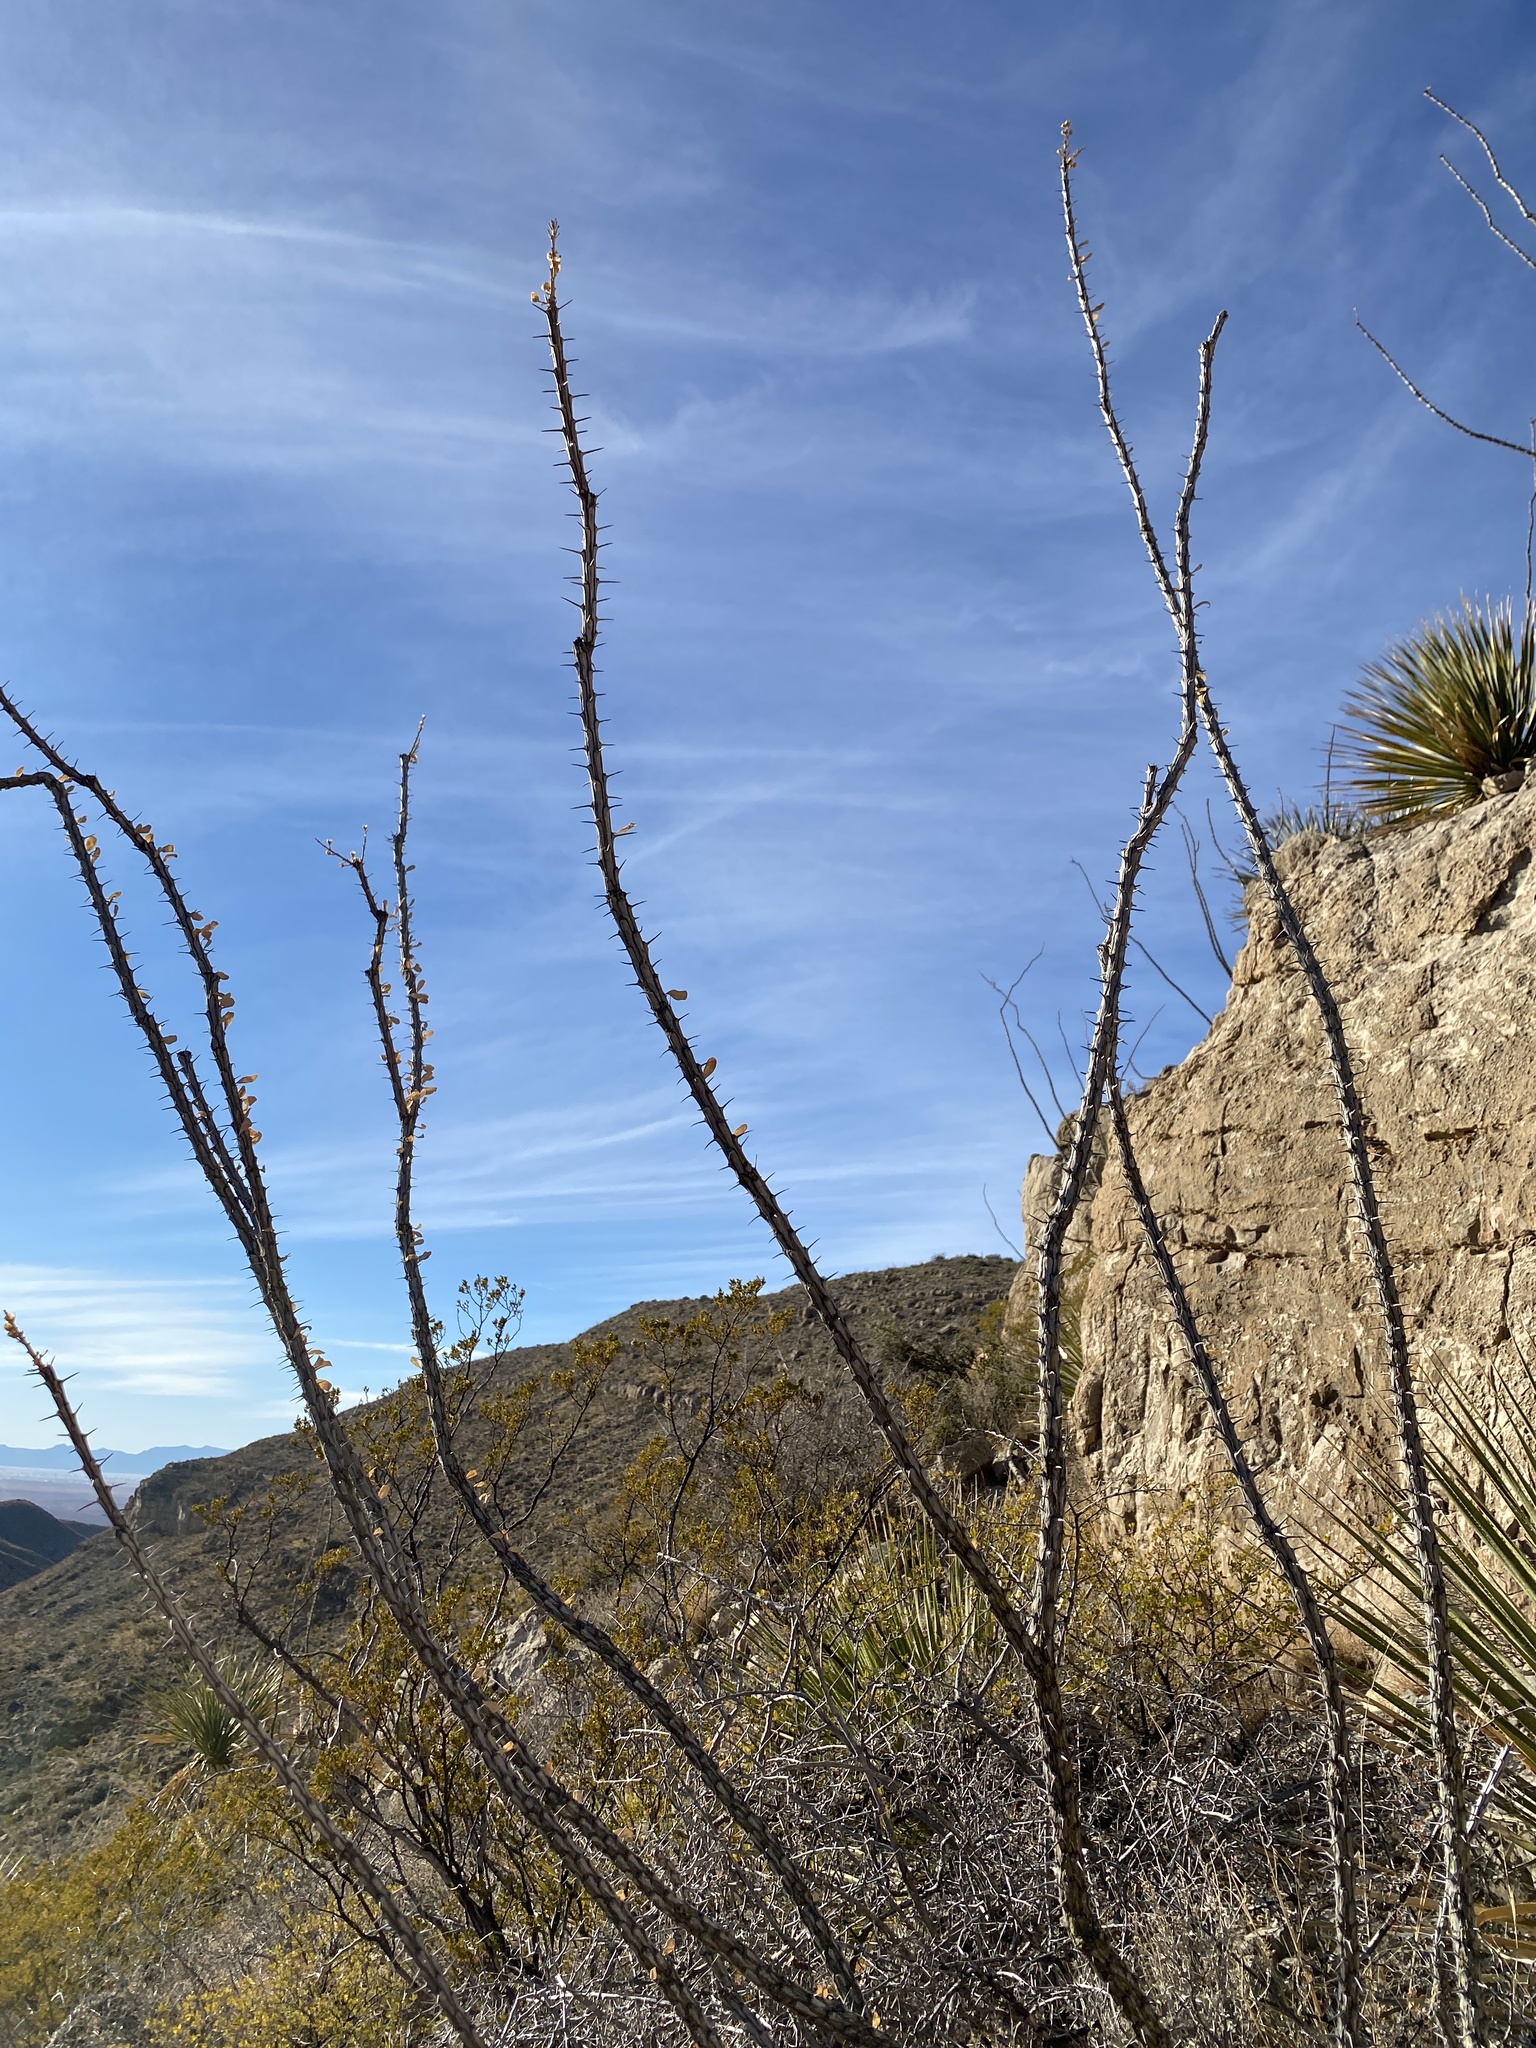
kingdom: Plantae
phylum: Tracheophyta
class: Magnoliopsida
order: Ericales
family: Fouquieriaceae
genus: Fouquieria
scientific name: Fouquieria splendens
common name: Vine-cactus
